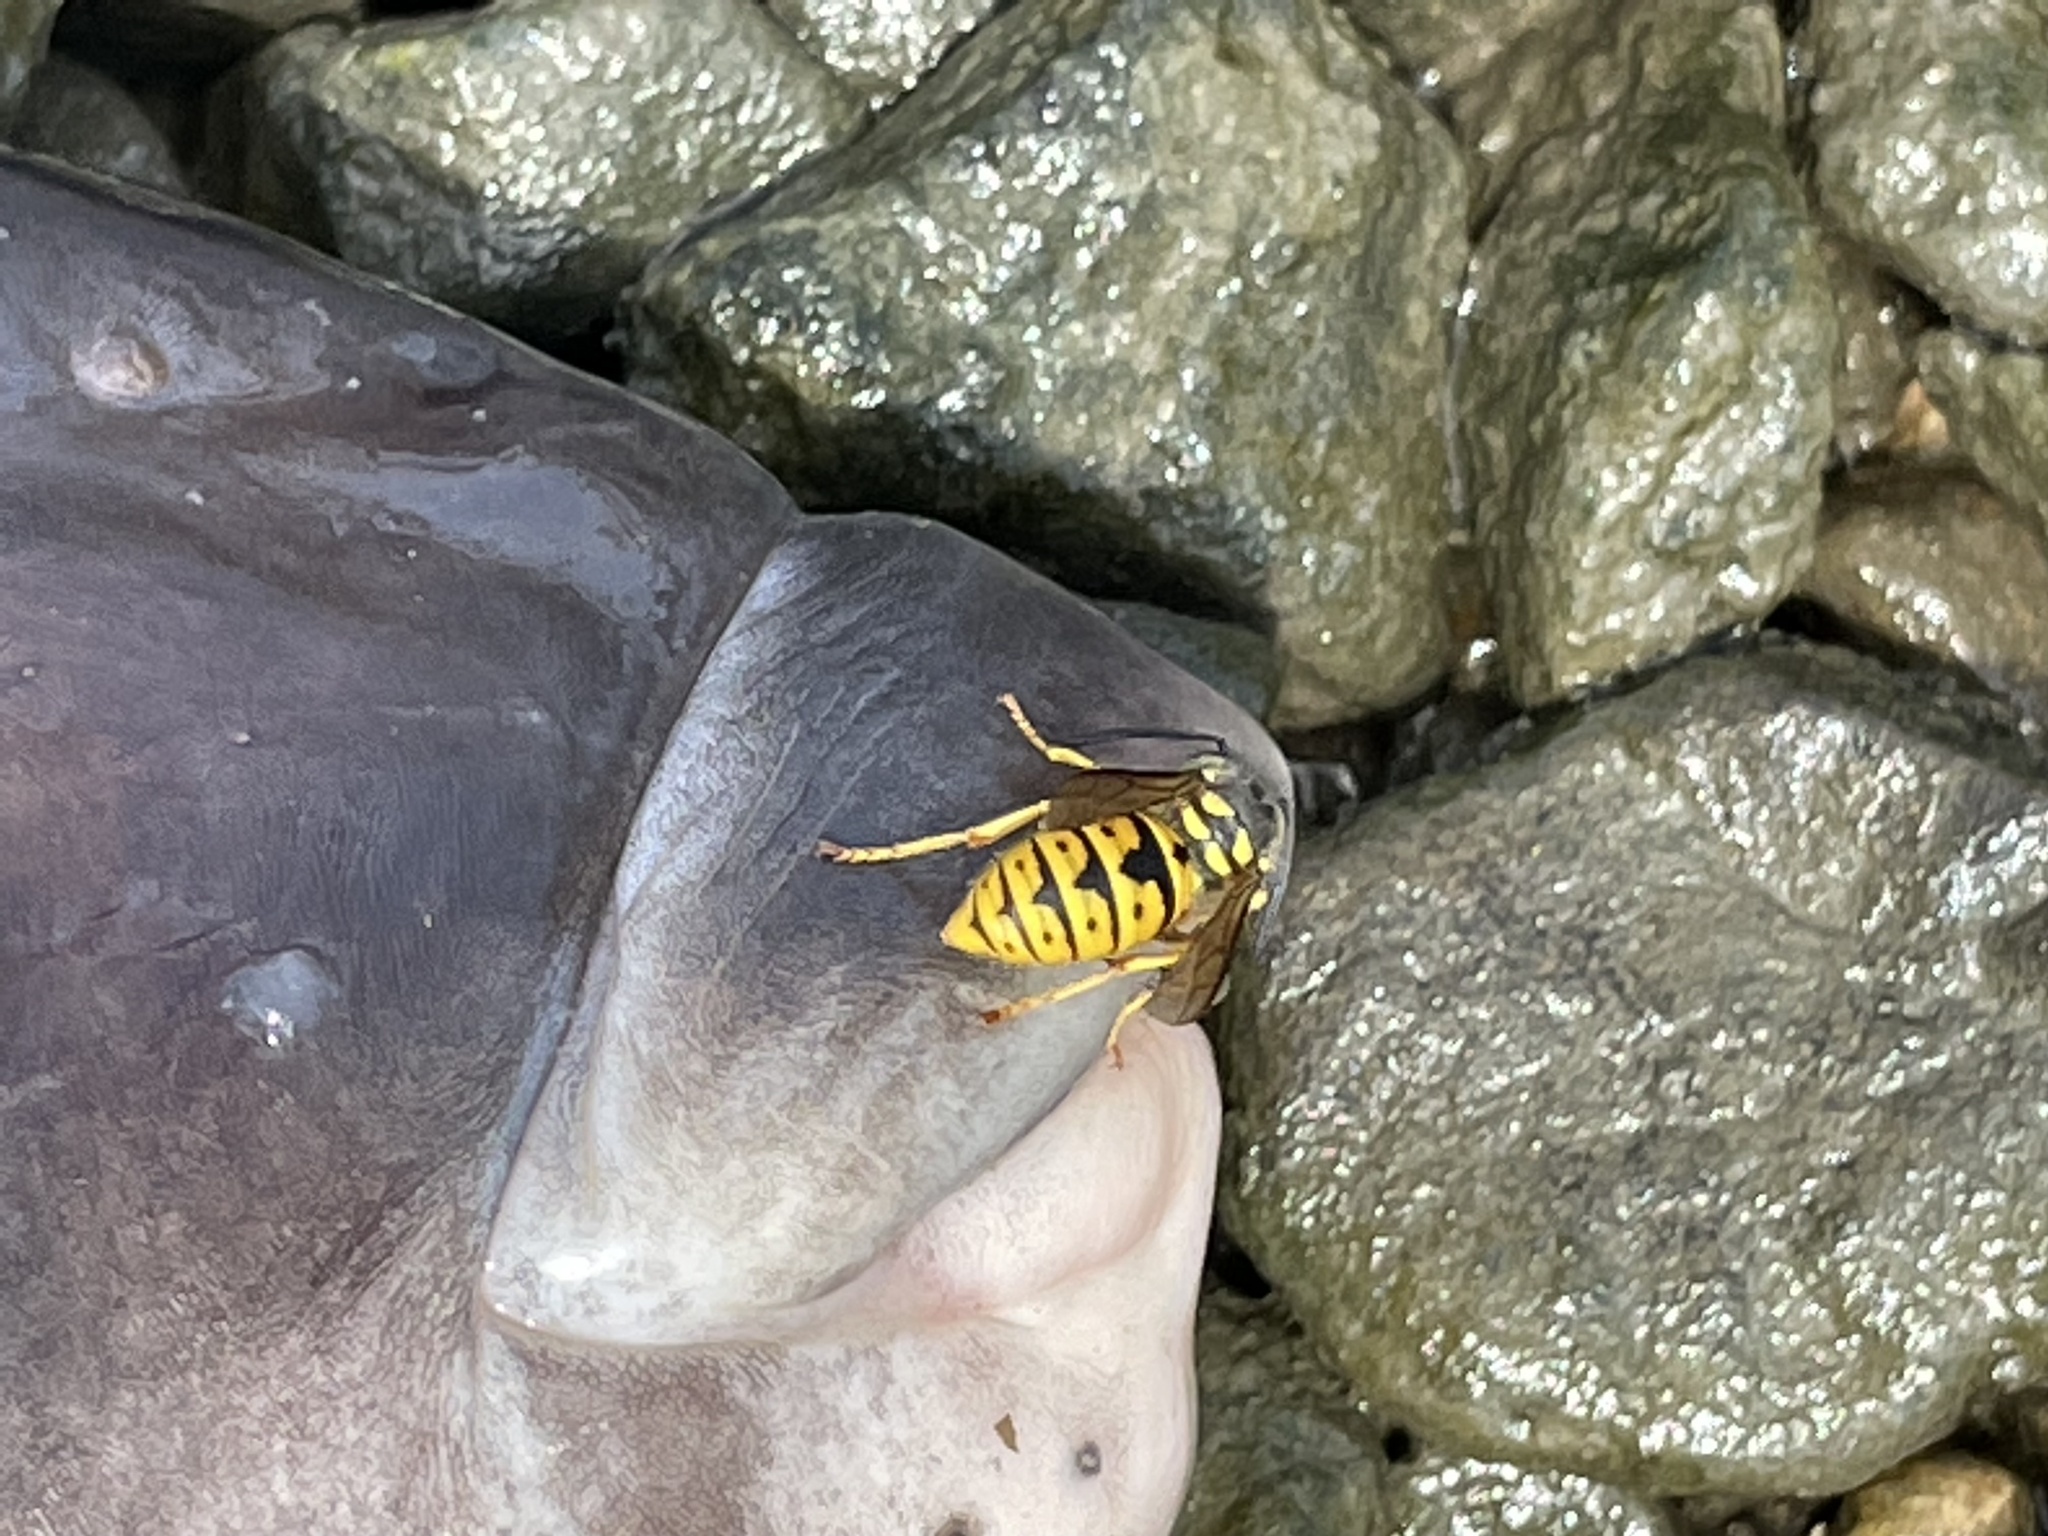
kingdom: Animalia
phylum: Arthropoda
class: Insecta
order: Hymenoptera
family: Vespidae
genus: Vespula
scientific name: Vespula germanica
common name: German wasp
